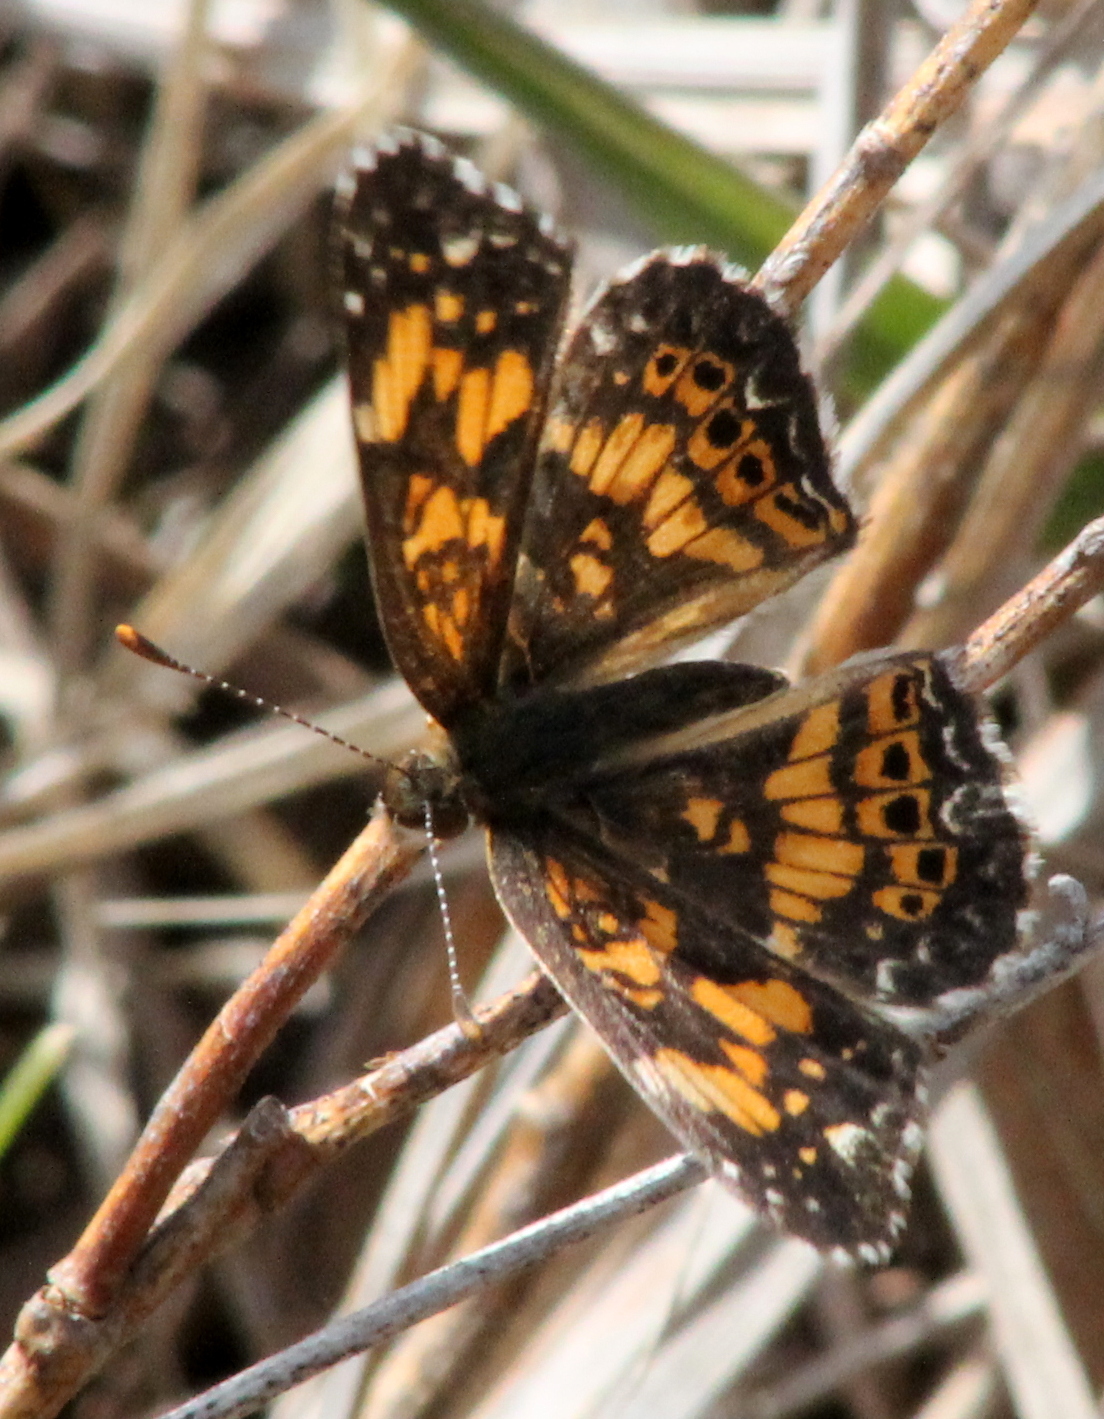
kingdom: Animalia
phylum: Arthropoda
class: Insecta
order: Lepidoptera
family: Nymphalidae
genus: Chlosyne
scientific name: Chlosyne gorgone
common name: Gorgone checkerspot
